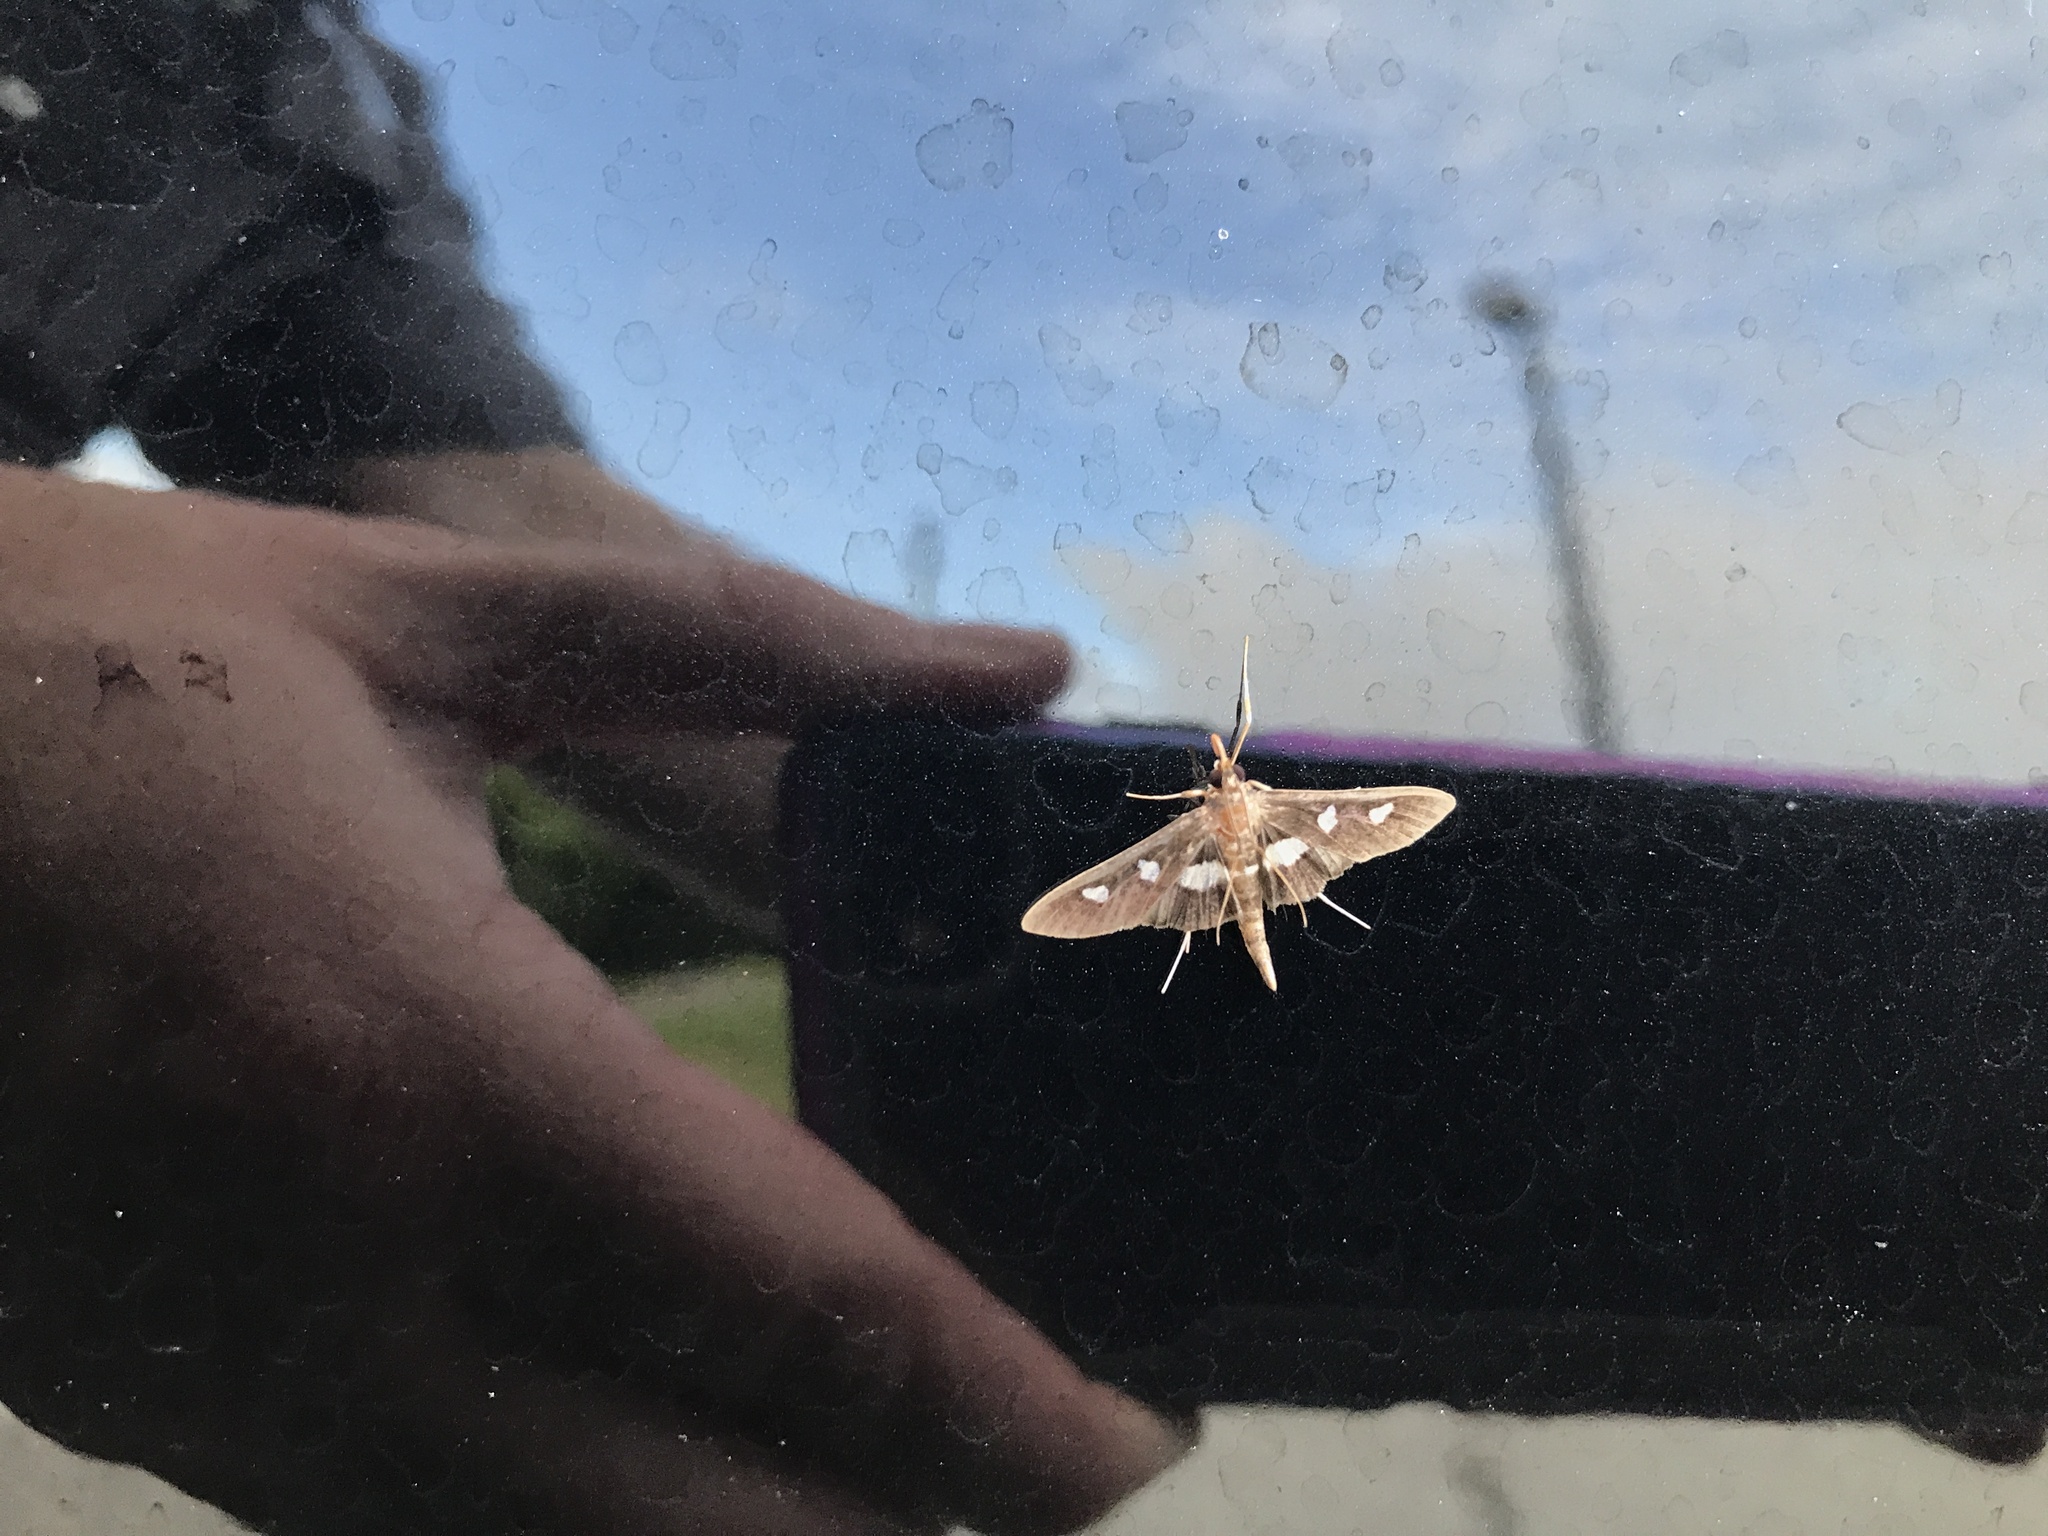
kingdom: Animalia
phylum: Arthropoda
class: Insecta
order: Lepidoptera
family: Crambidae
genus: Desmia
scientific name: Desmia
